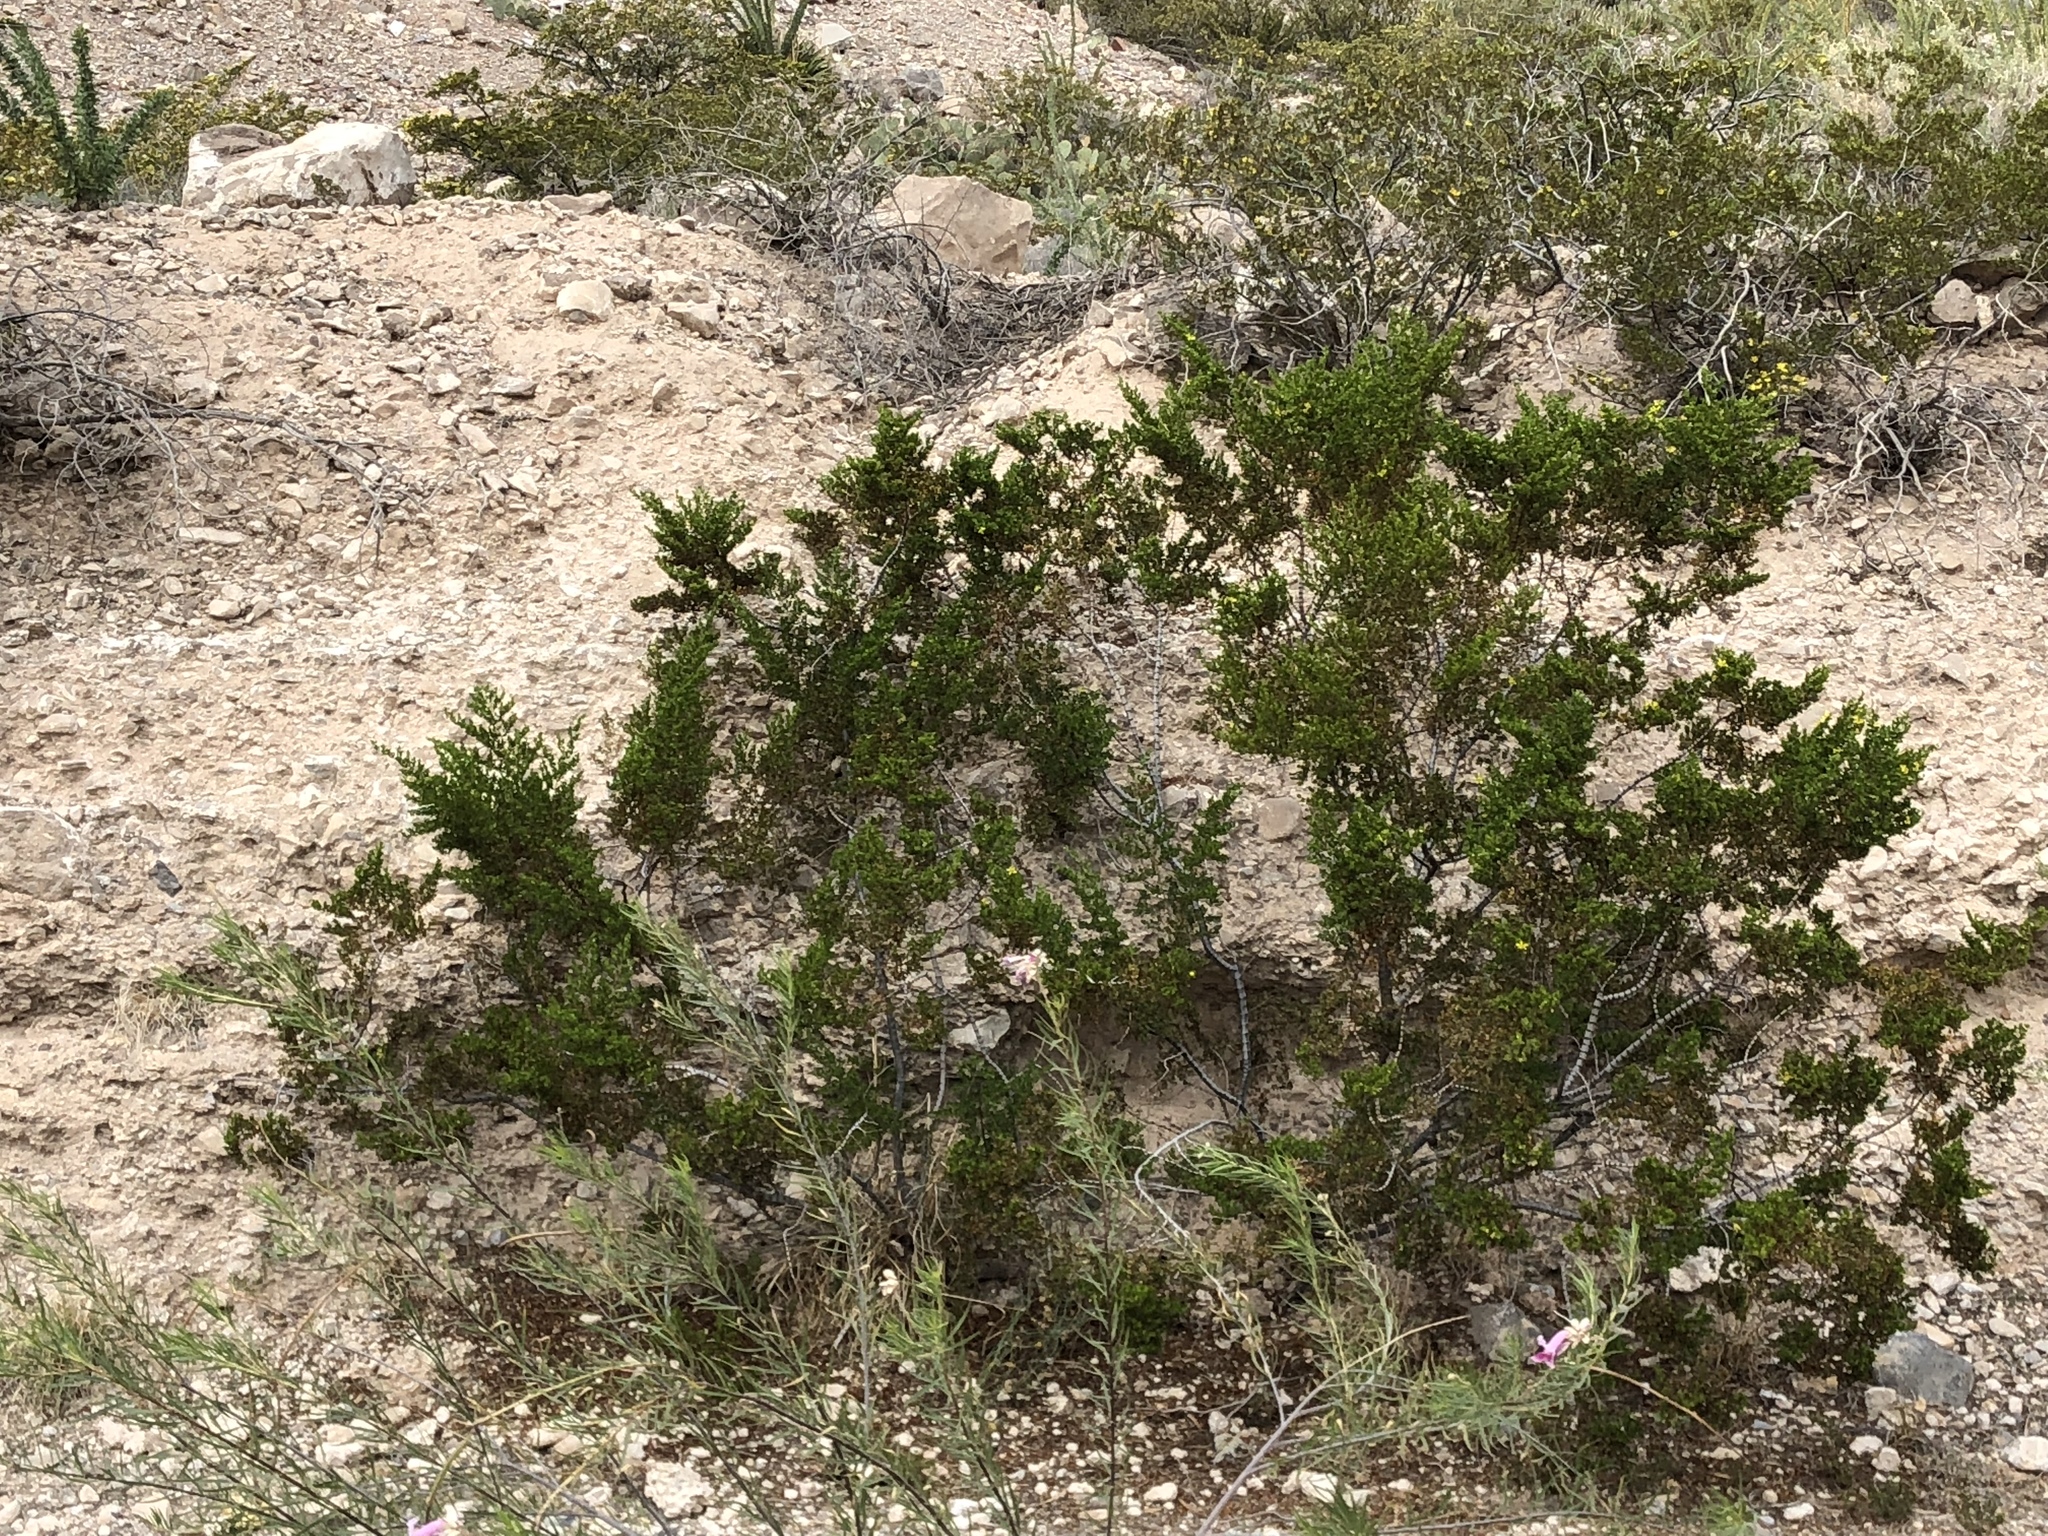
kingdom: Plantae
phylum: Tracheophyta
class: Magnoliopsida
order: Zygophyllales
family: Zygophyllaceae
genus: Larrea
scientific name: Larrea tridentata
